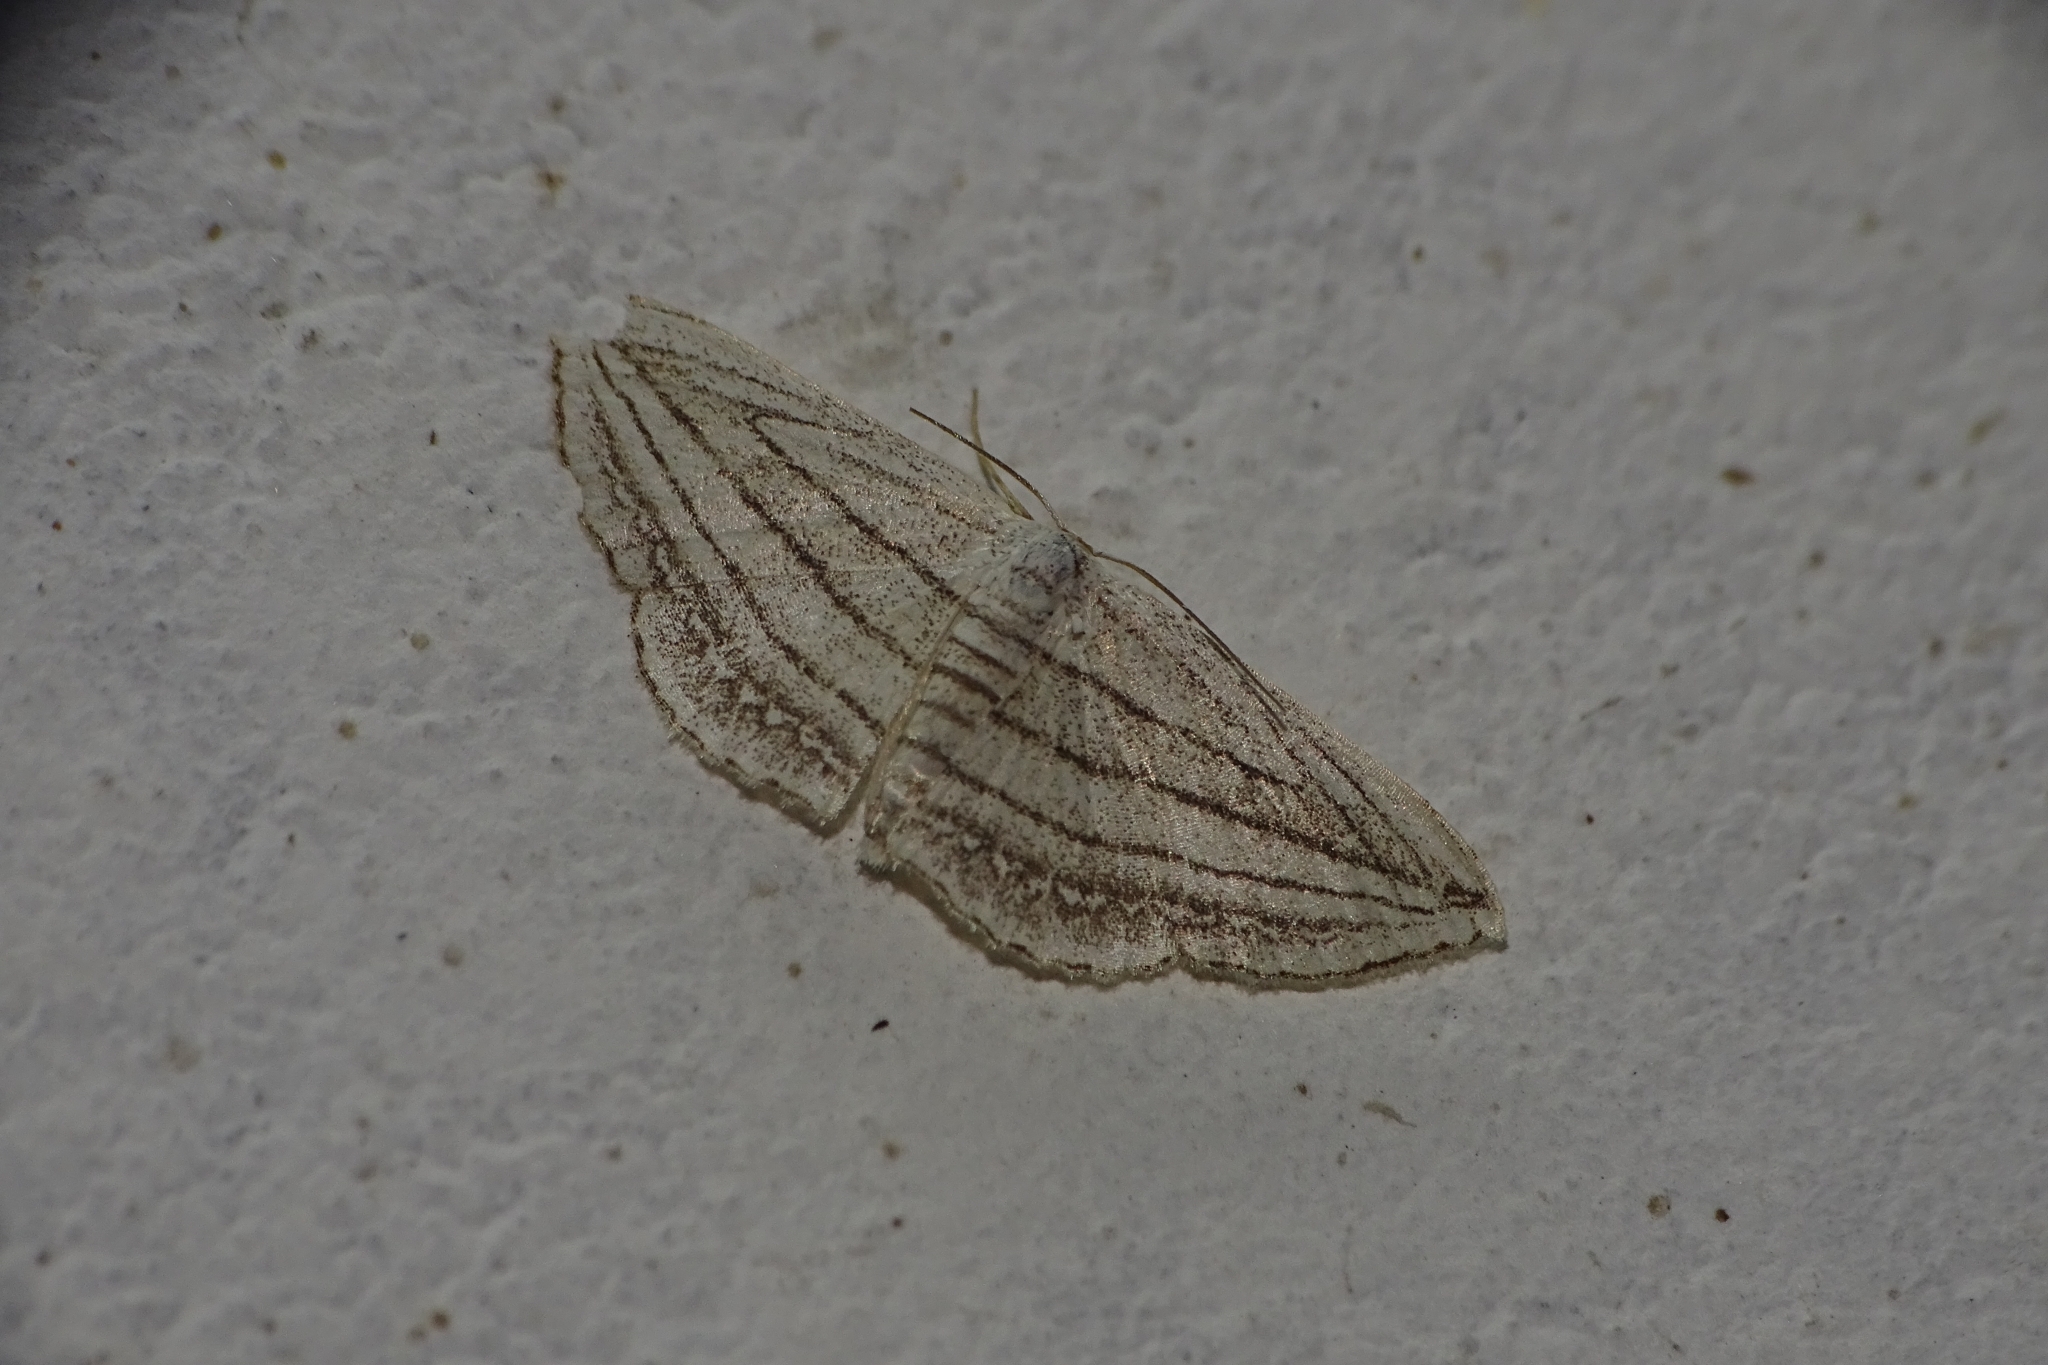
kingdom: Animalia
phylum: Arthropoda
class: Insecta
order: Lepidoptera
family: Geometridae
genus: Scopula
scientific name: Scopula opicata
